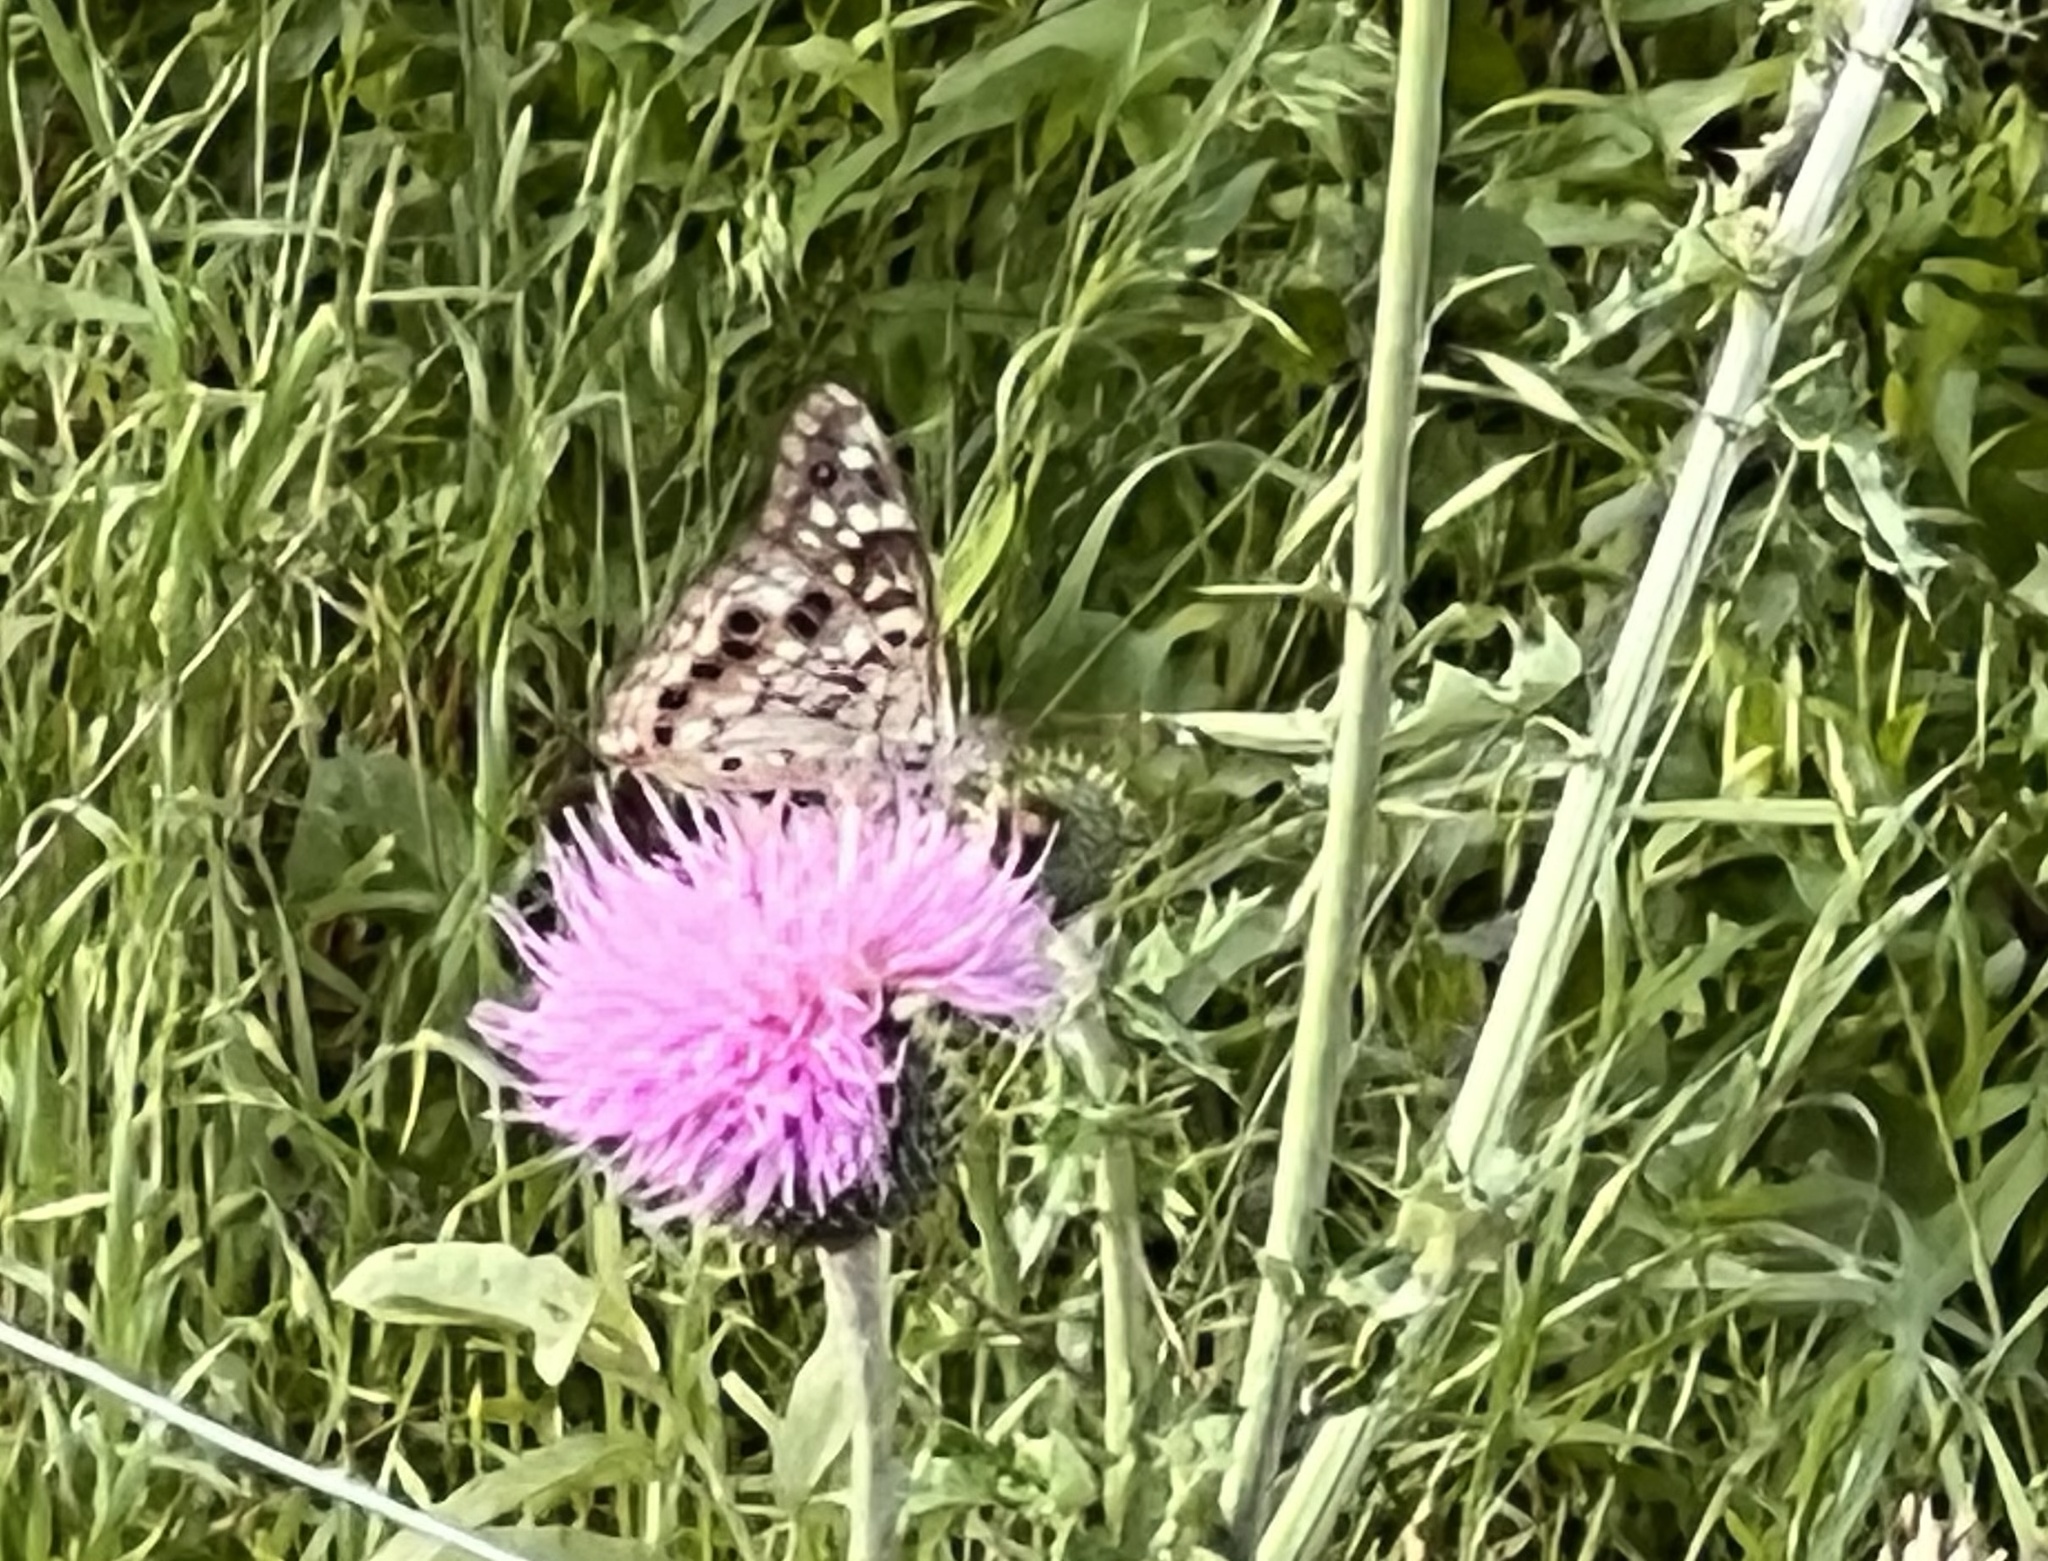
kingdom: Animalia
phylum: Arthropoda
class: Insecta
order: Lepidoptera
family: Nymphalidae
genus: Asterocampa
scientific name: Asterocampa celtis
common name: Hackberry emperor
